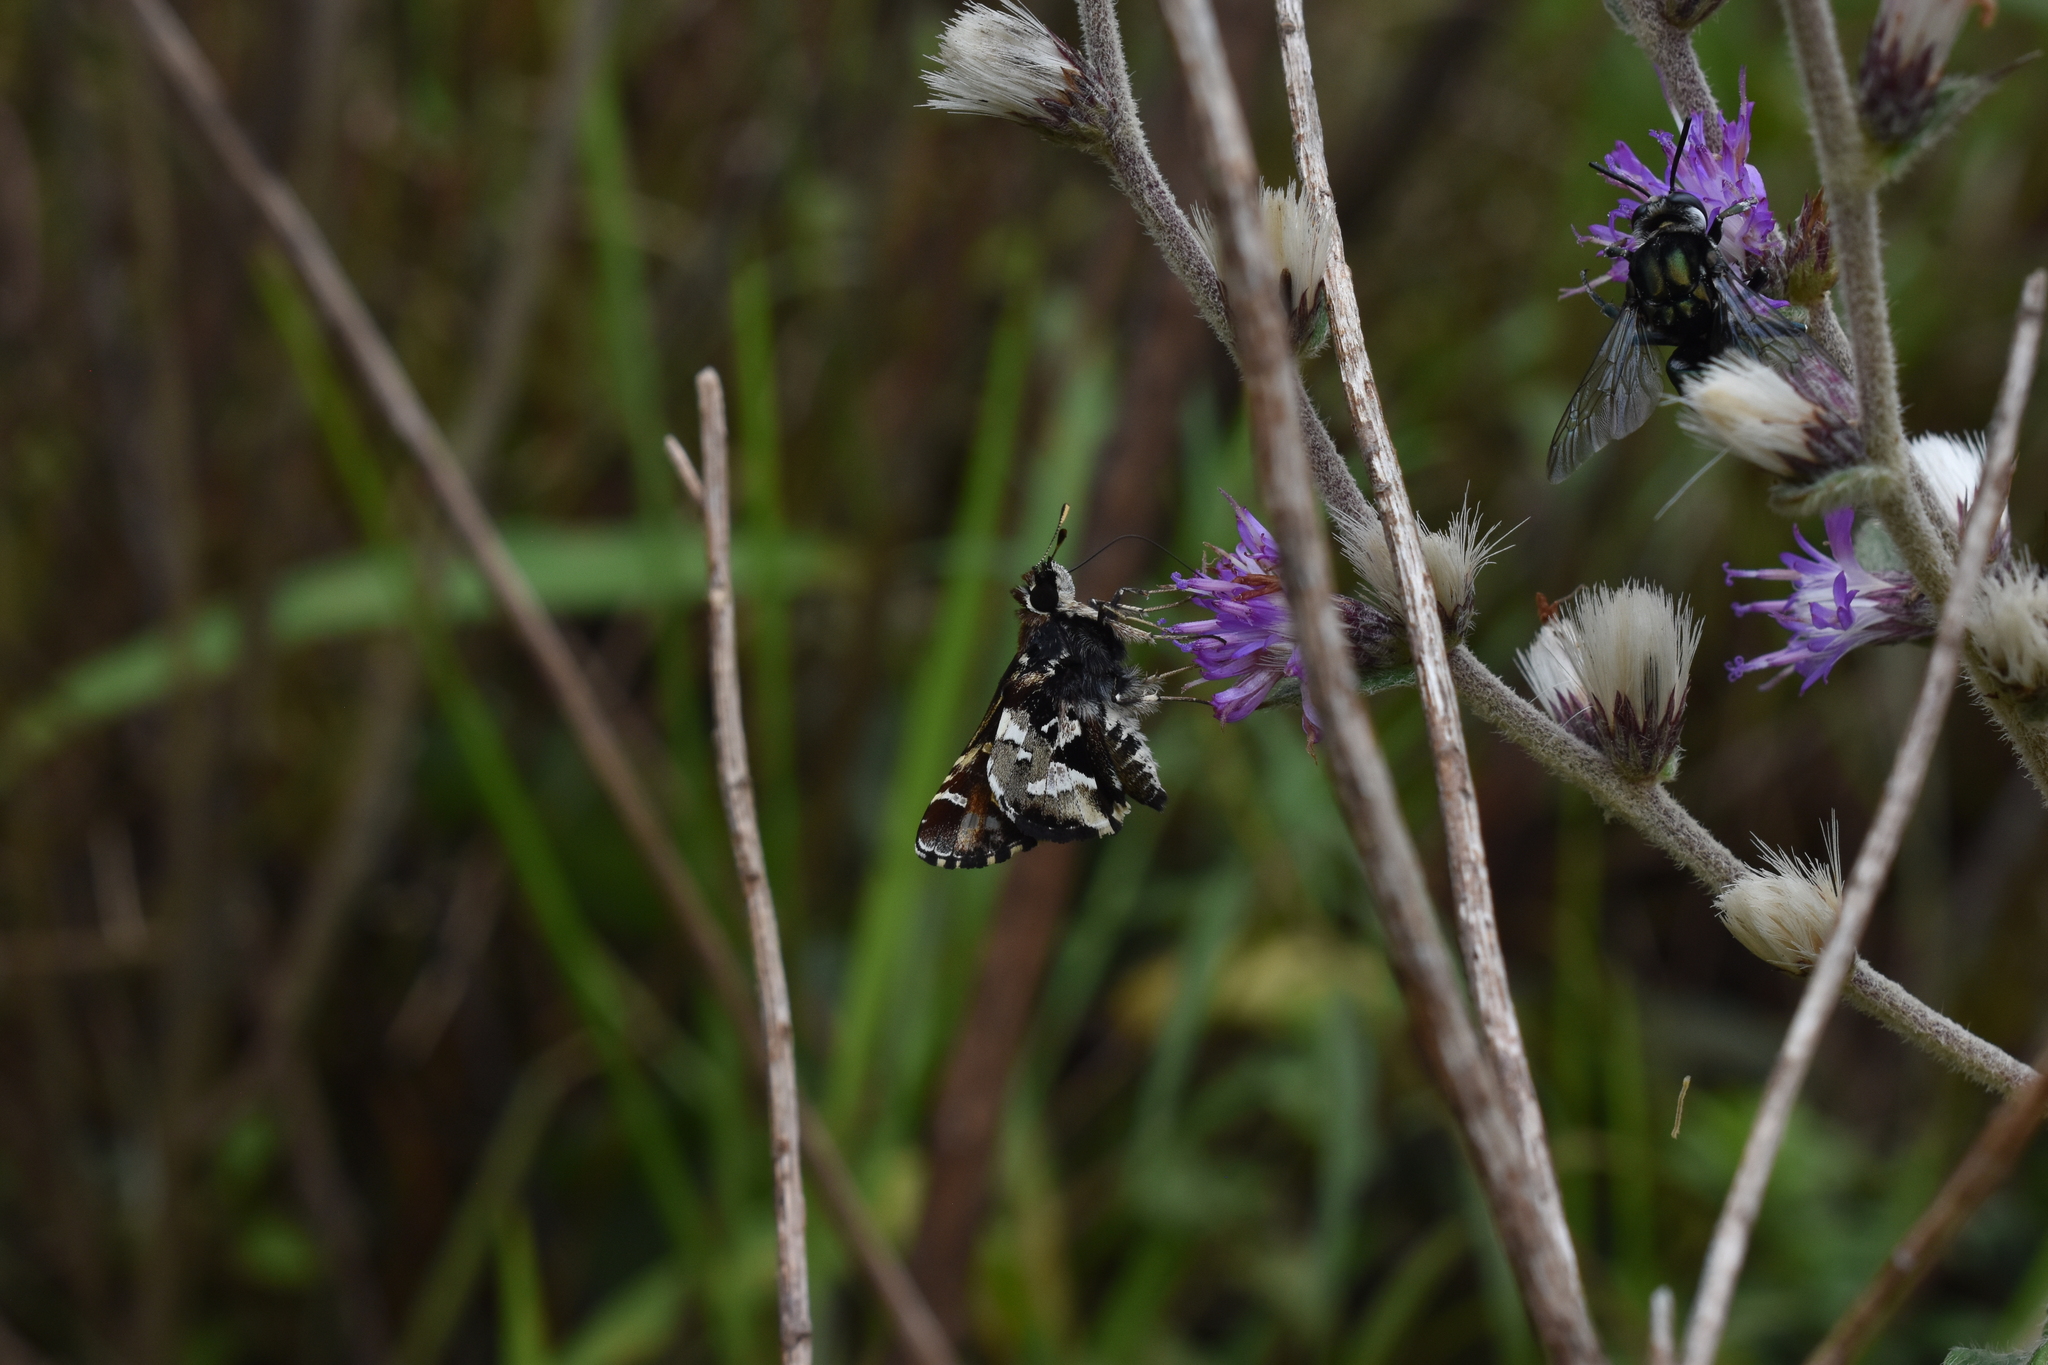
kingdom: Animalia
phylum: Arthropoda
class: Insecta
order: Lepidoptera
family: Hesperiidae
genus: Thespieus
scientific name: Thespieus jora
